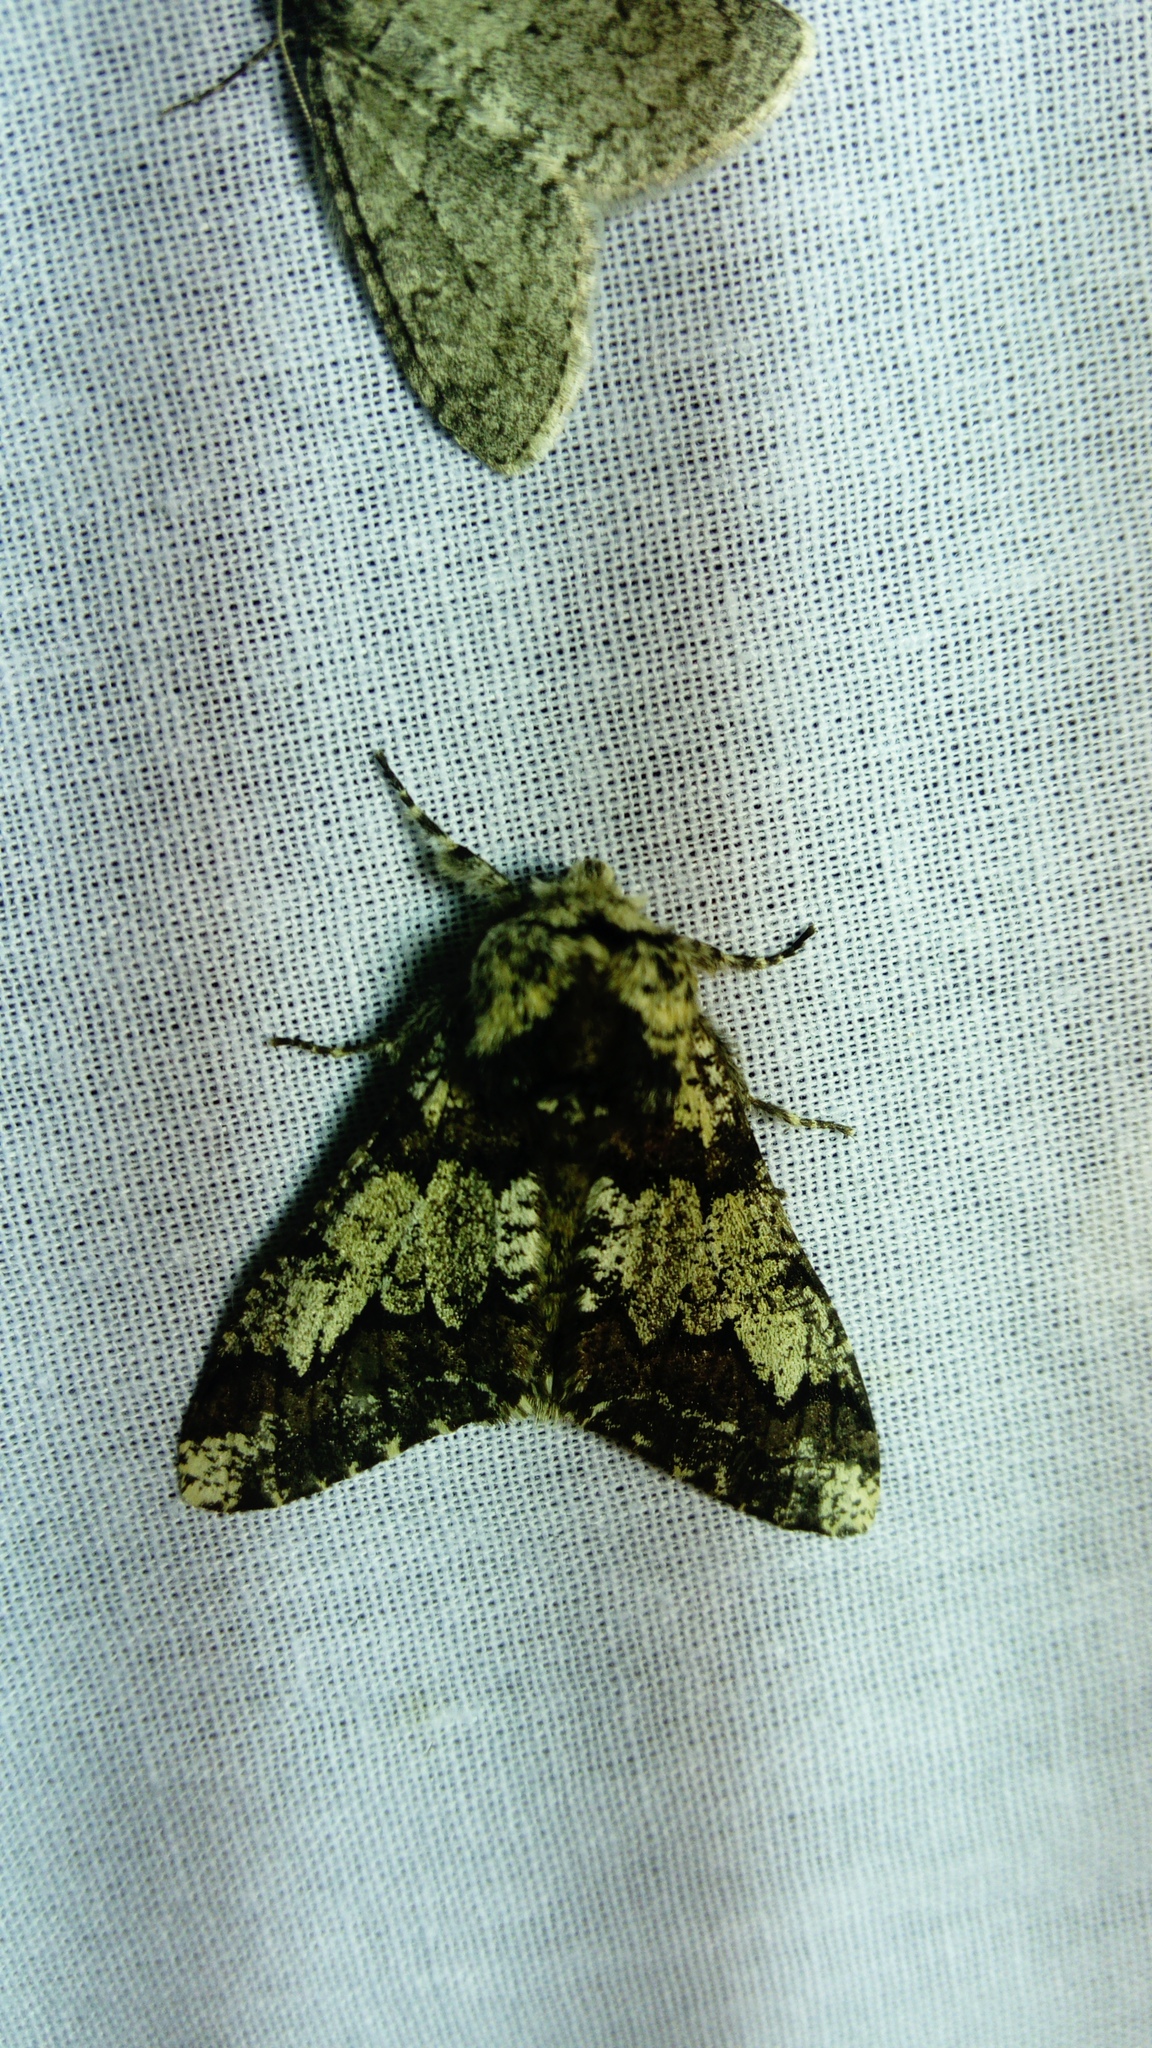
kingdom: Animalia
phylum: Arthropoda
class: Insecta
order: Lepidoptera
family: Geometridae
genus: Biston
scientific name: Biston strataria
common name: Oak beauty
